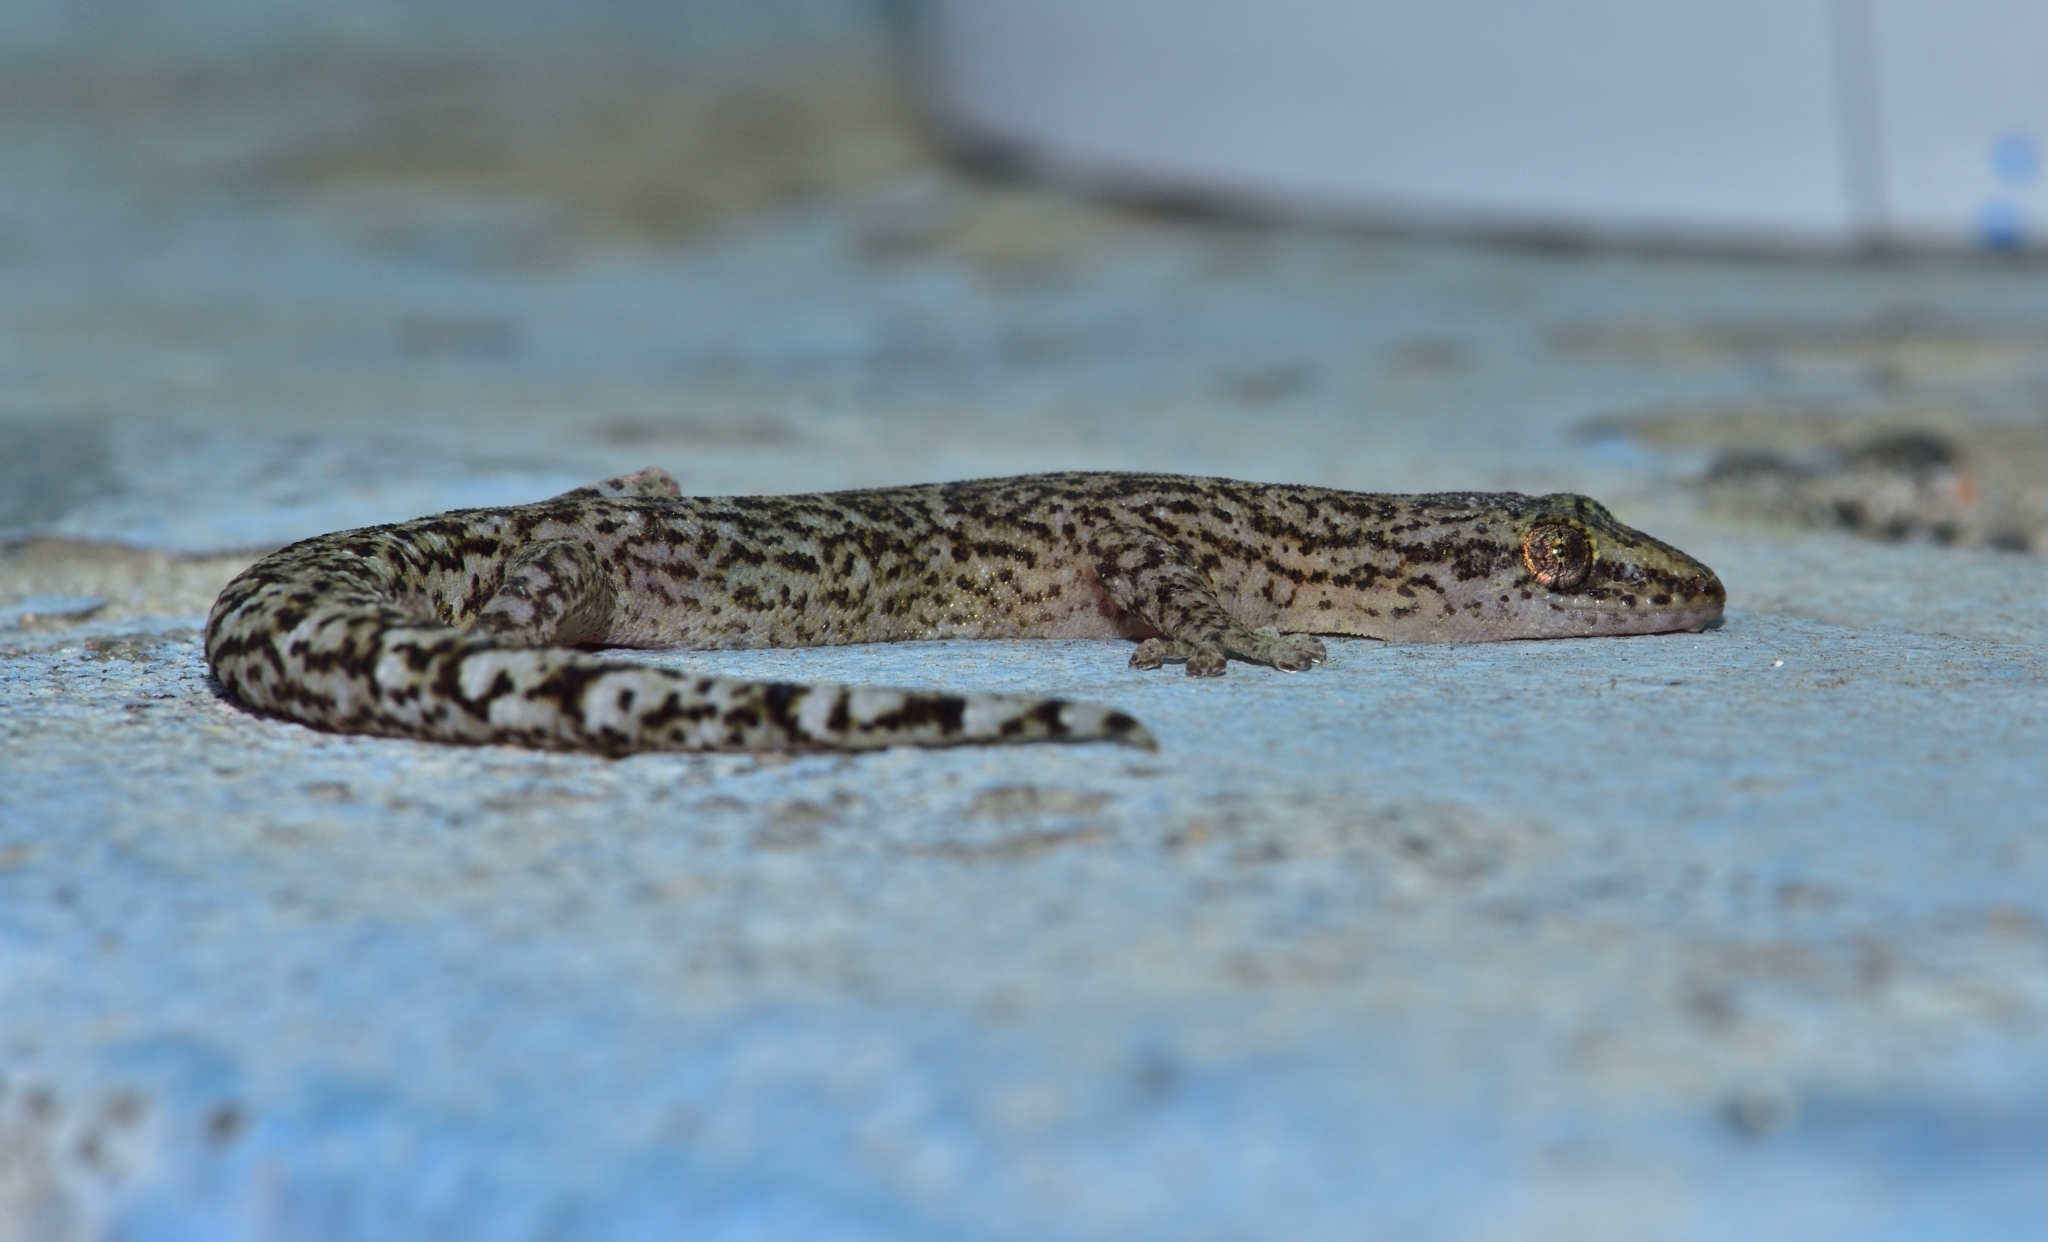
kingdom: Animalia
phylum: Chordata
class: Squamata
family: Gekkonidae
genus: Afrogecko
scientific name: Afrogecko porphyreus
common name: Marbled leaf-toed gecko
